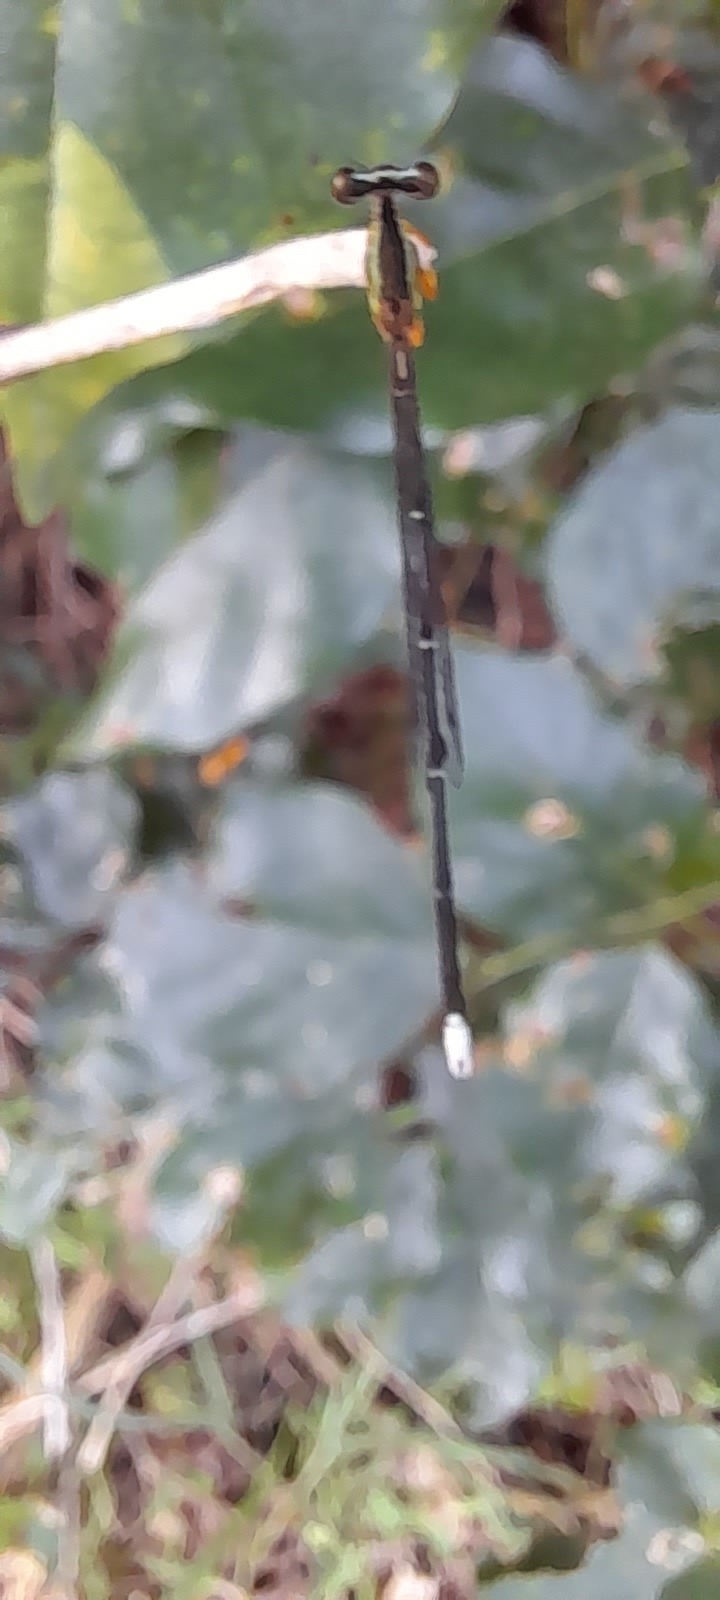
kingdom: Animalia
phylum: Arthropoda
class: Insecta
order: Odonata
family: Platycnemididae
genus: Copera
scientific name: Copera marginipes
